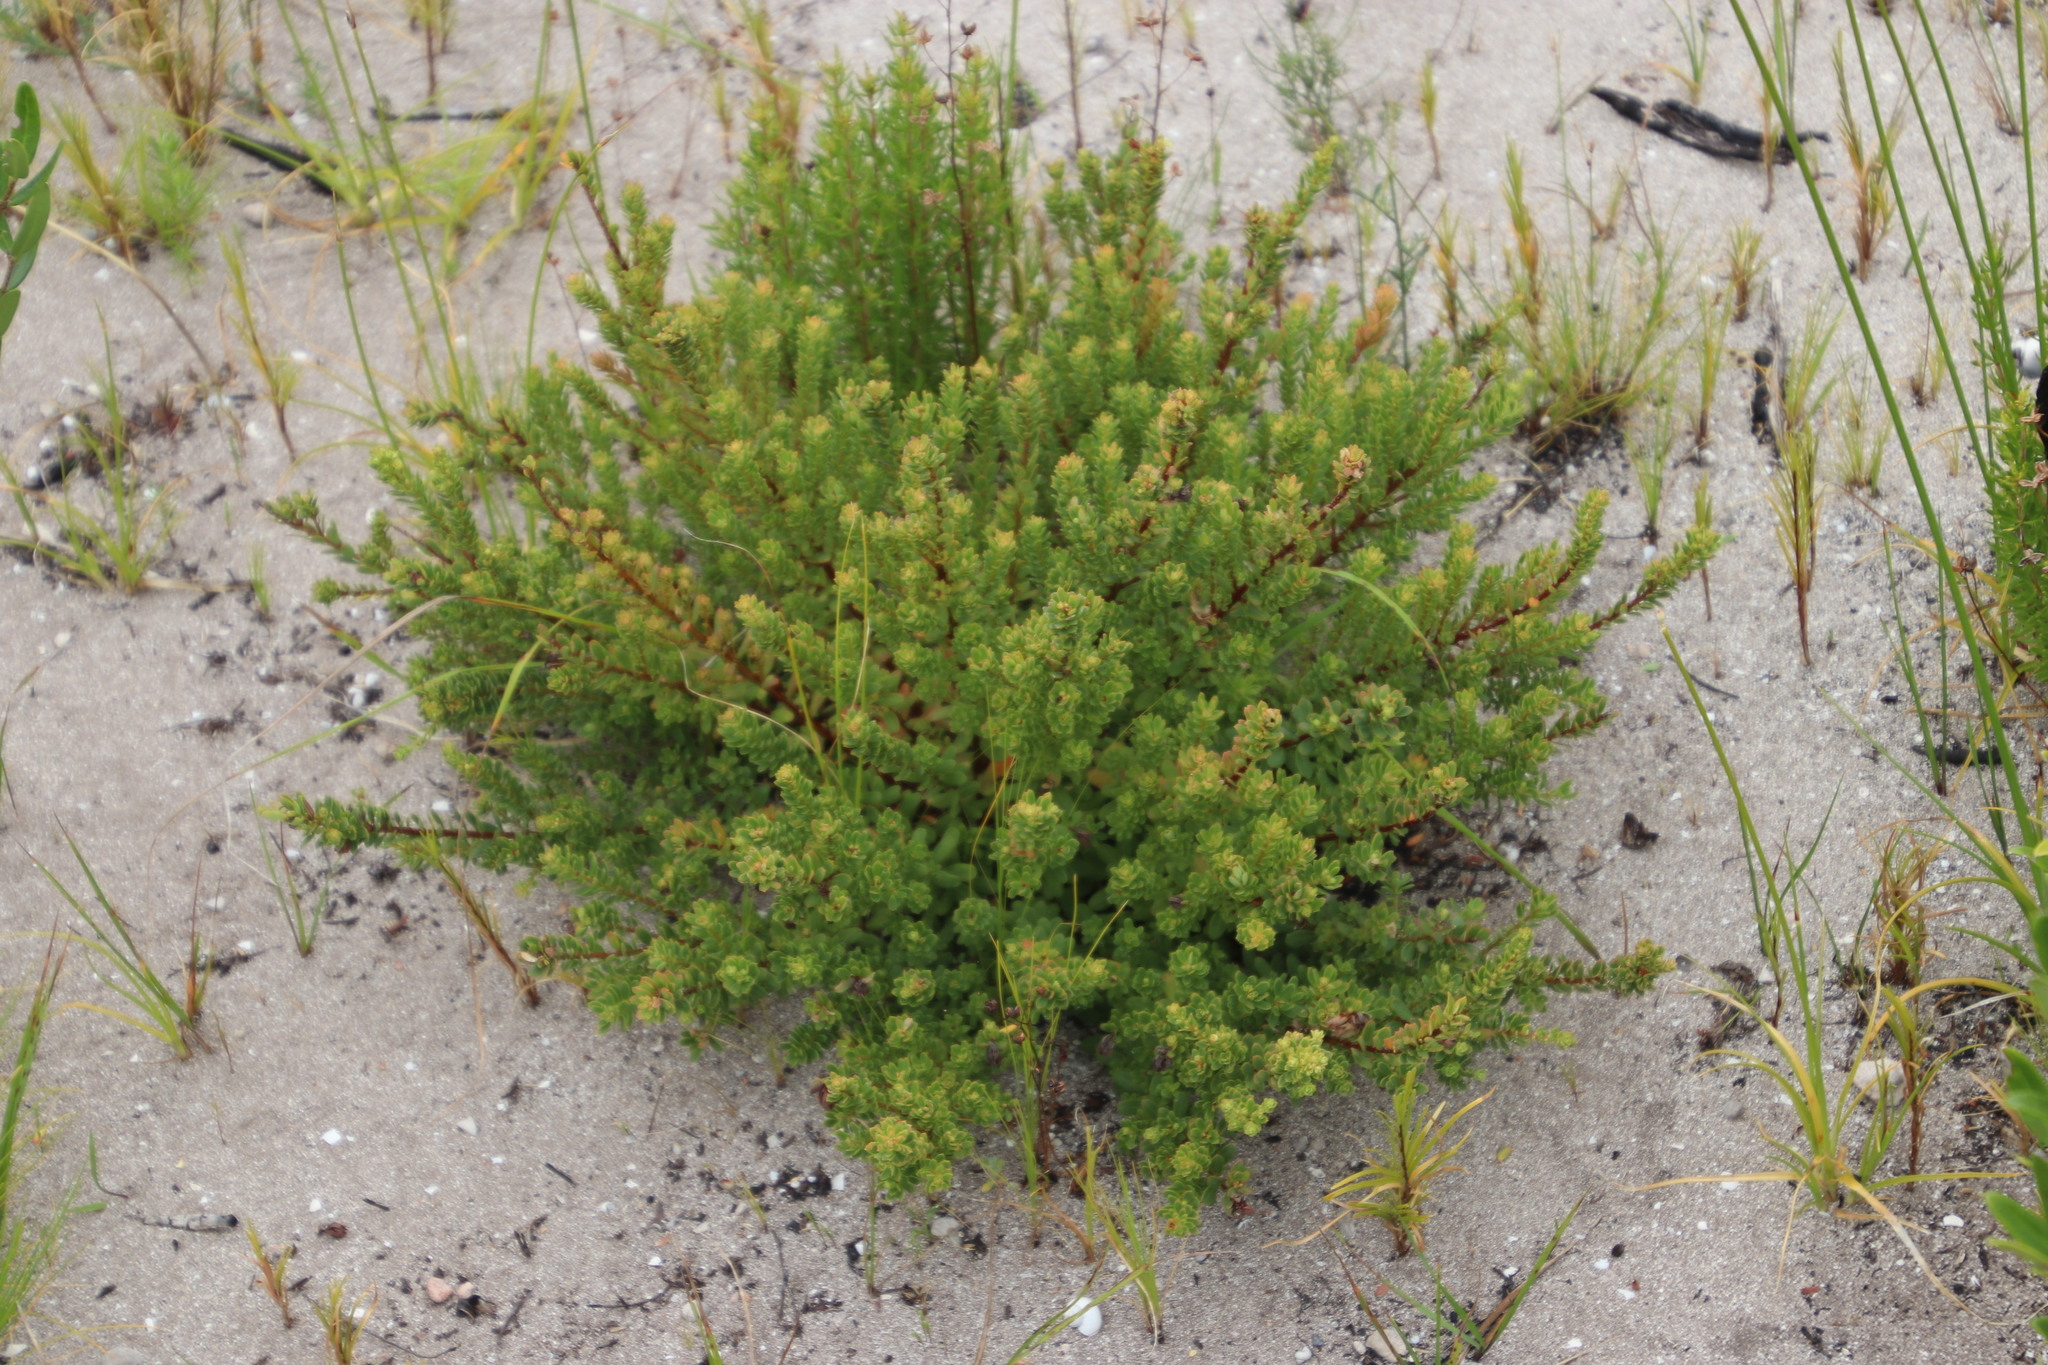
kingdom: Plantae
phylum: Tracheophyta
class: Magnoliopsida
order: Malpighiales
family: Peraceae
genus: Clutia
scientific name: Clutia alaternoides
